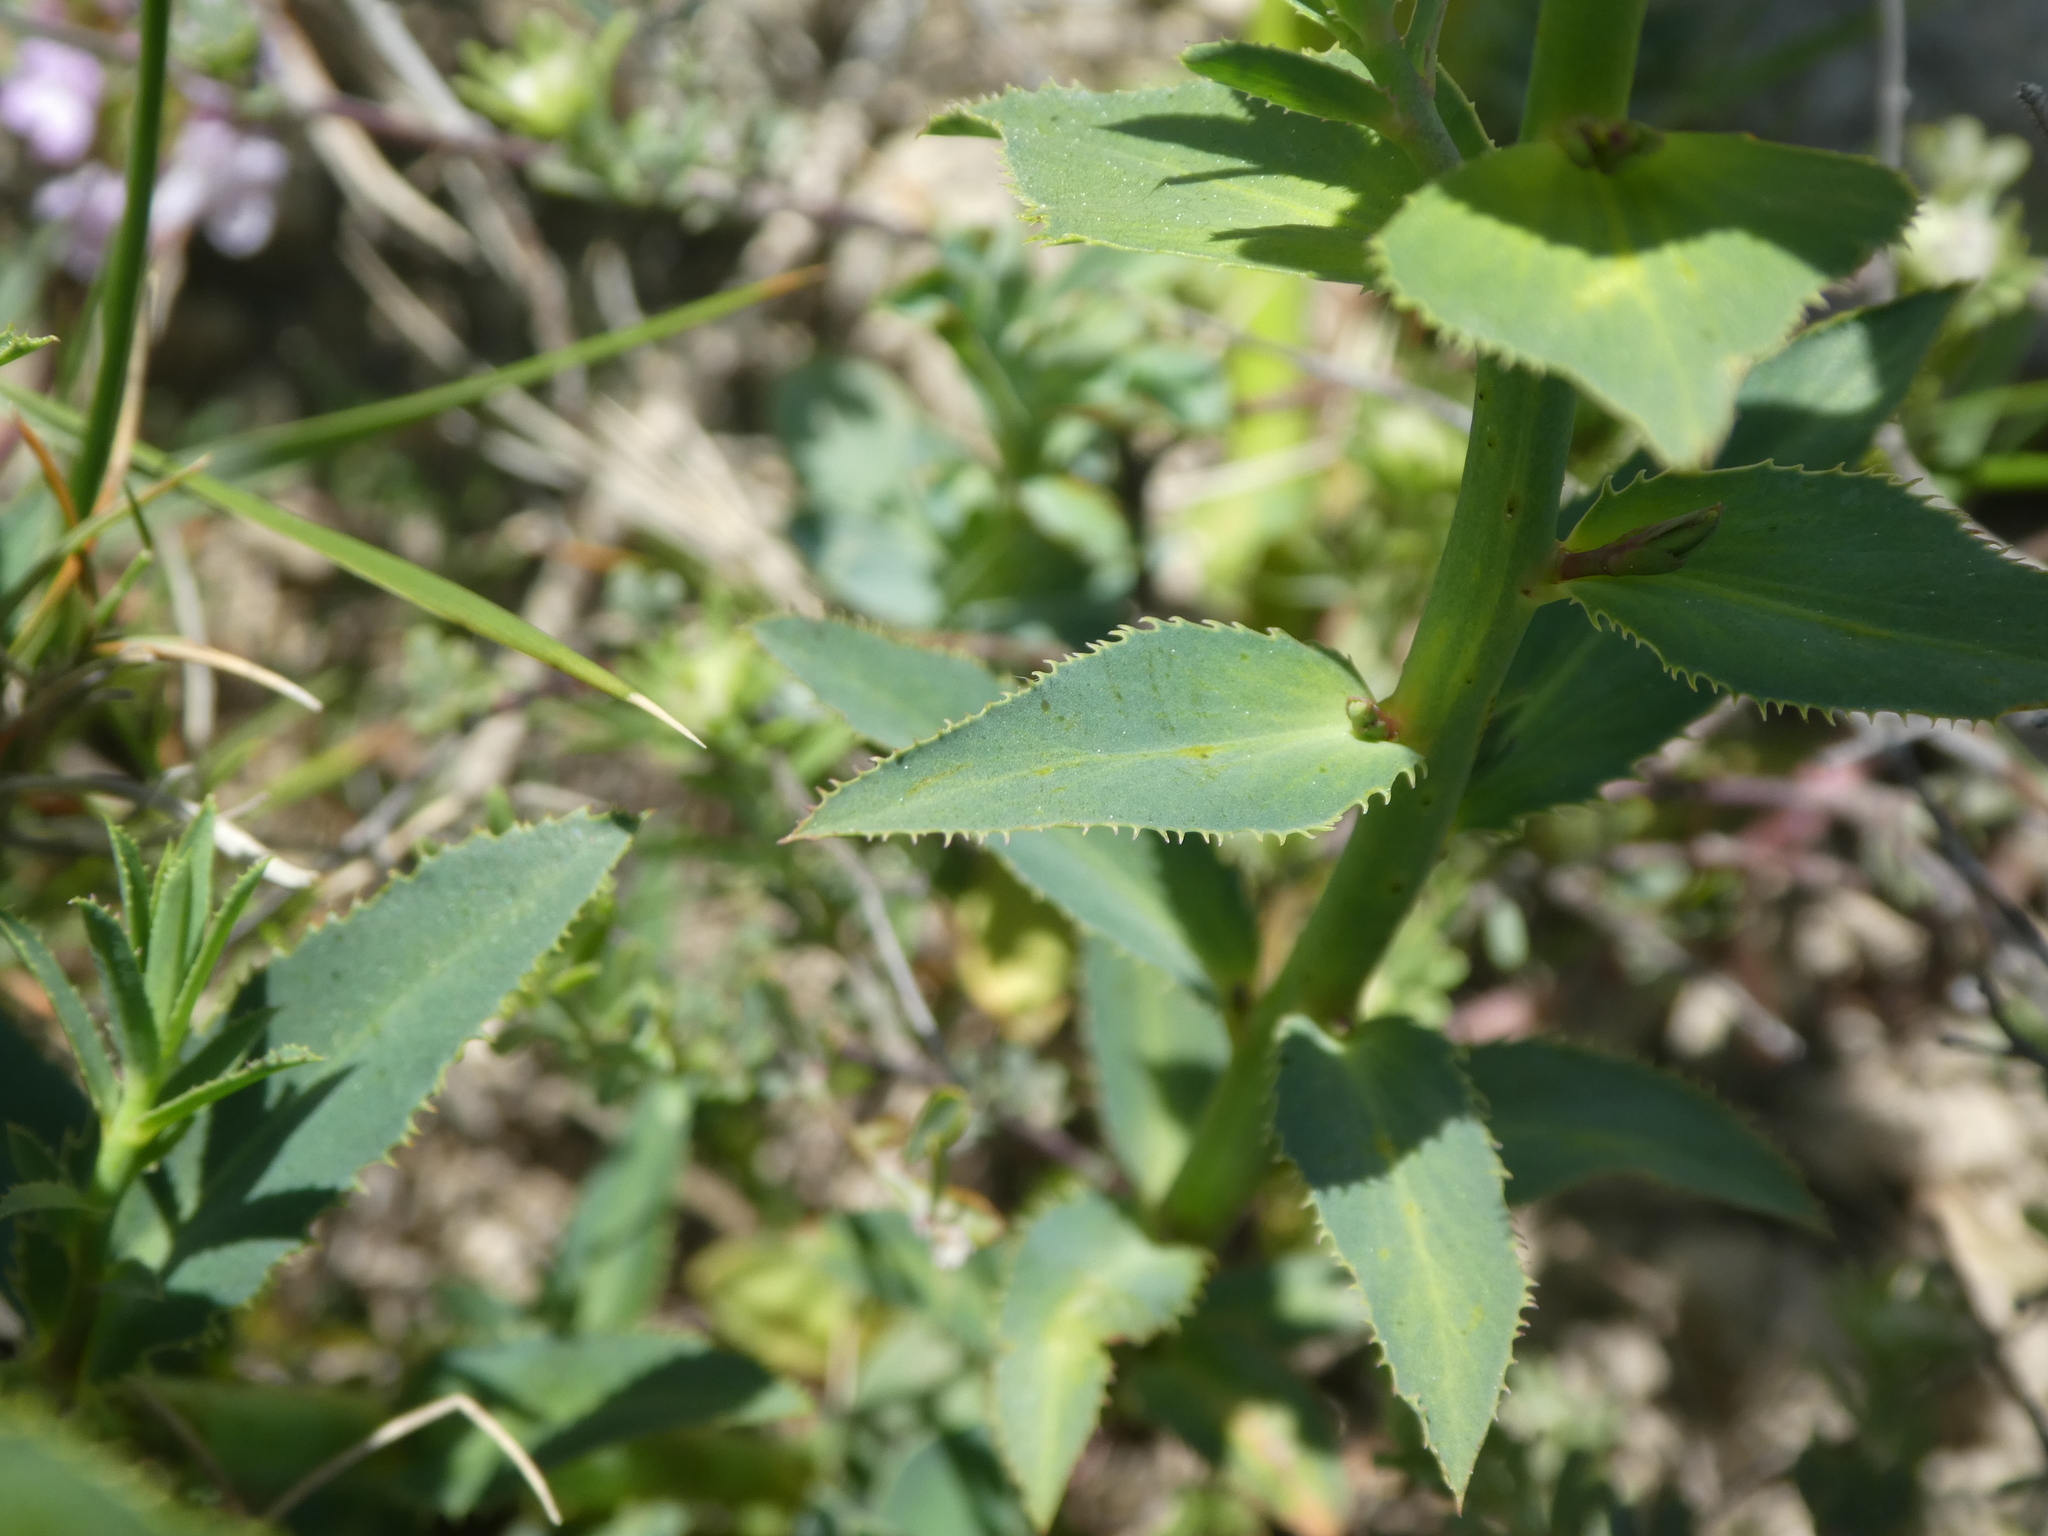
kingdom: Plantae
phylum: Tracheophyta
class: Magnoliopsida
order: Malpighiales
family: Euphorbiaceae
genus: Euphorbia
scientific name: Euphorbia serrata
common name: Serrate spurge
